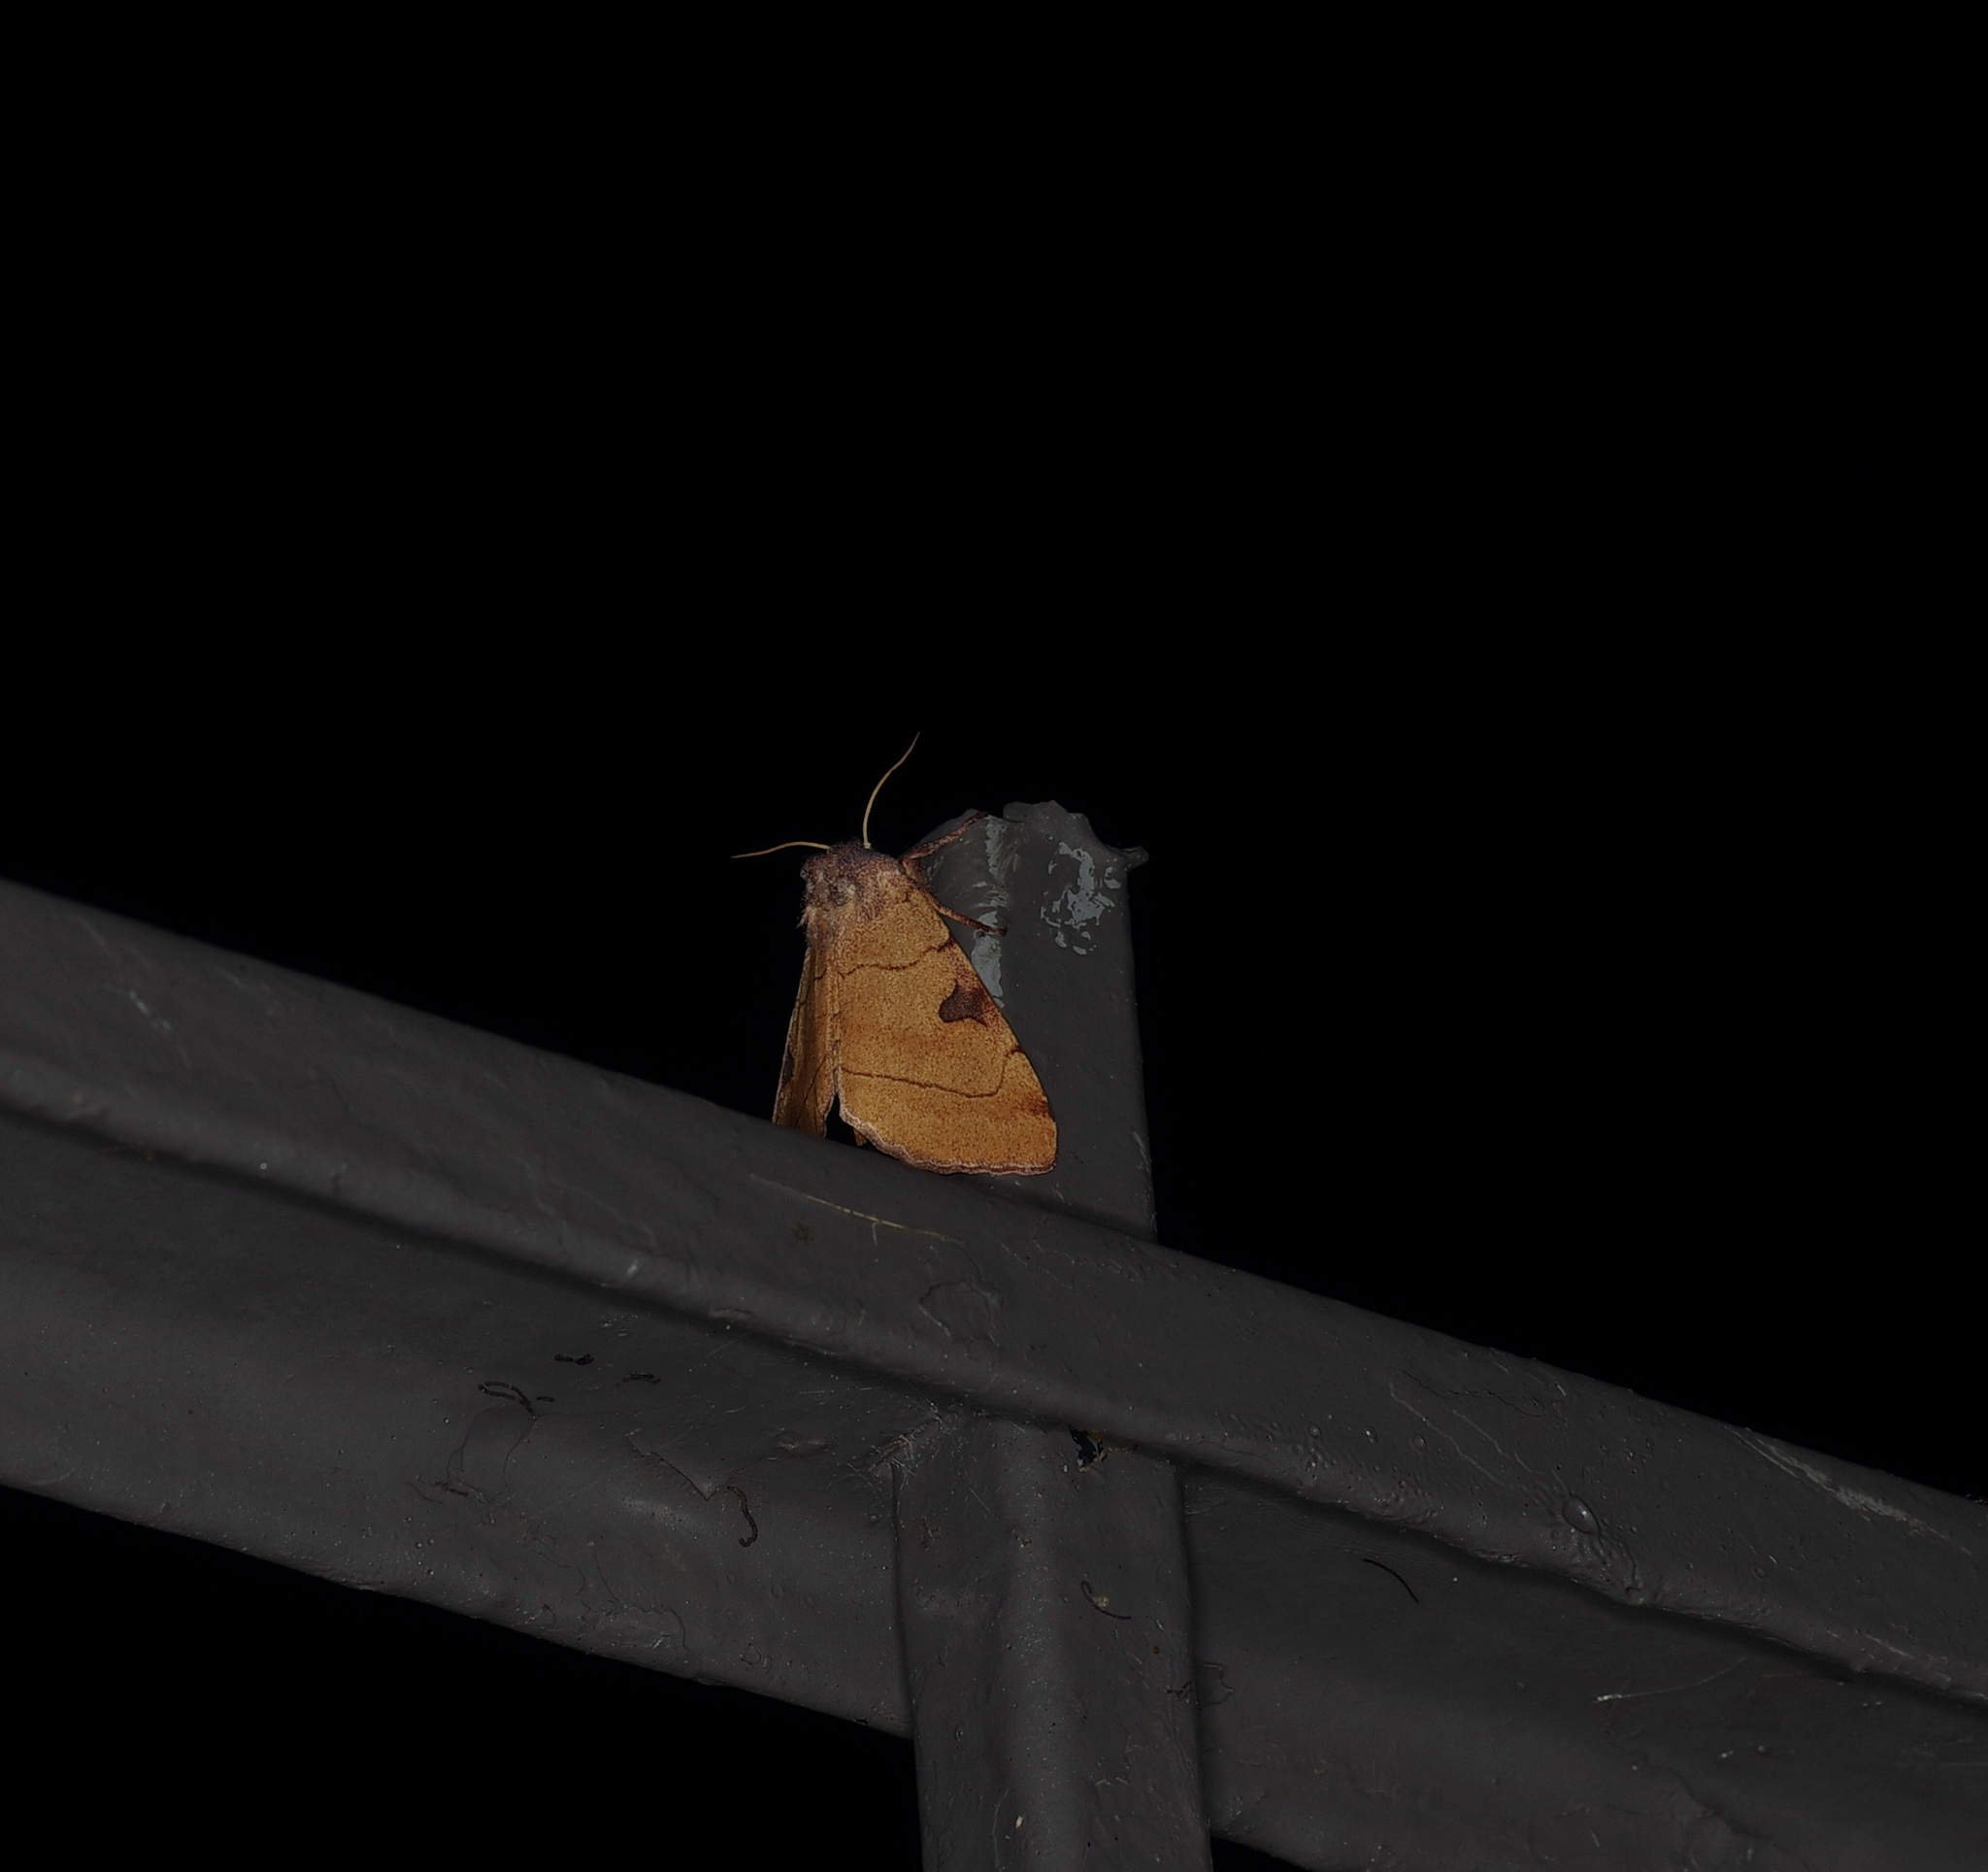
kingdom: Animalia
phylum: Arthropoda
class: Insecta
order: Lepidoptera
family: Noctuidae
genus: Choephora
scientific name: Choephora fungorum
